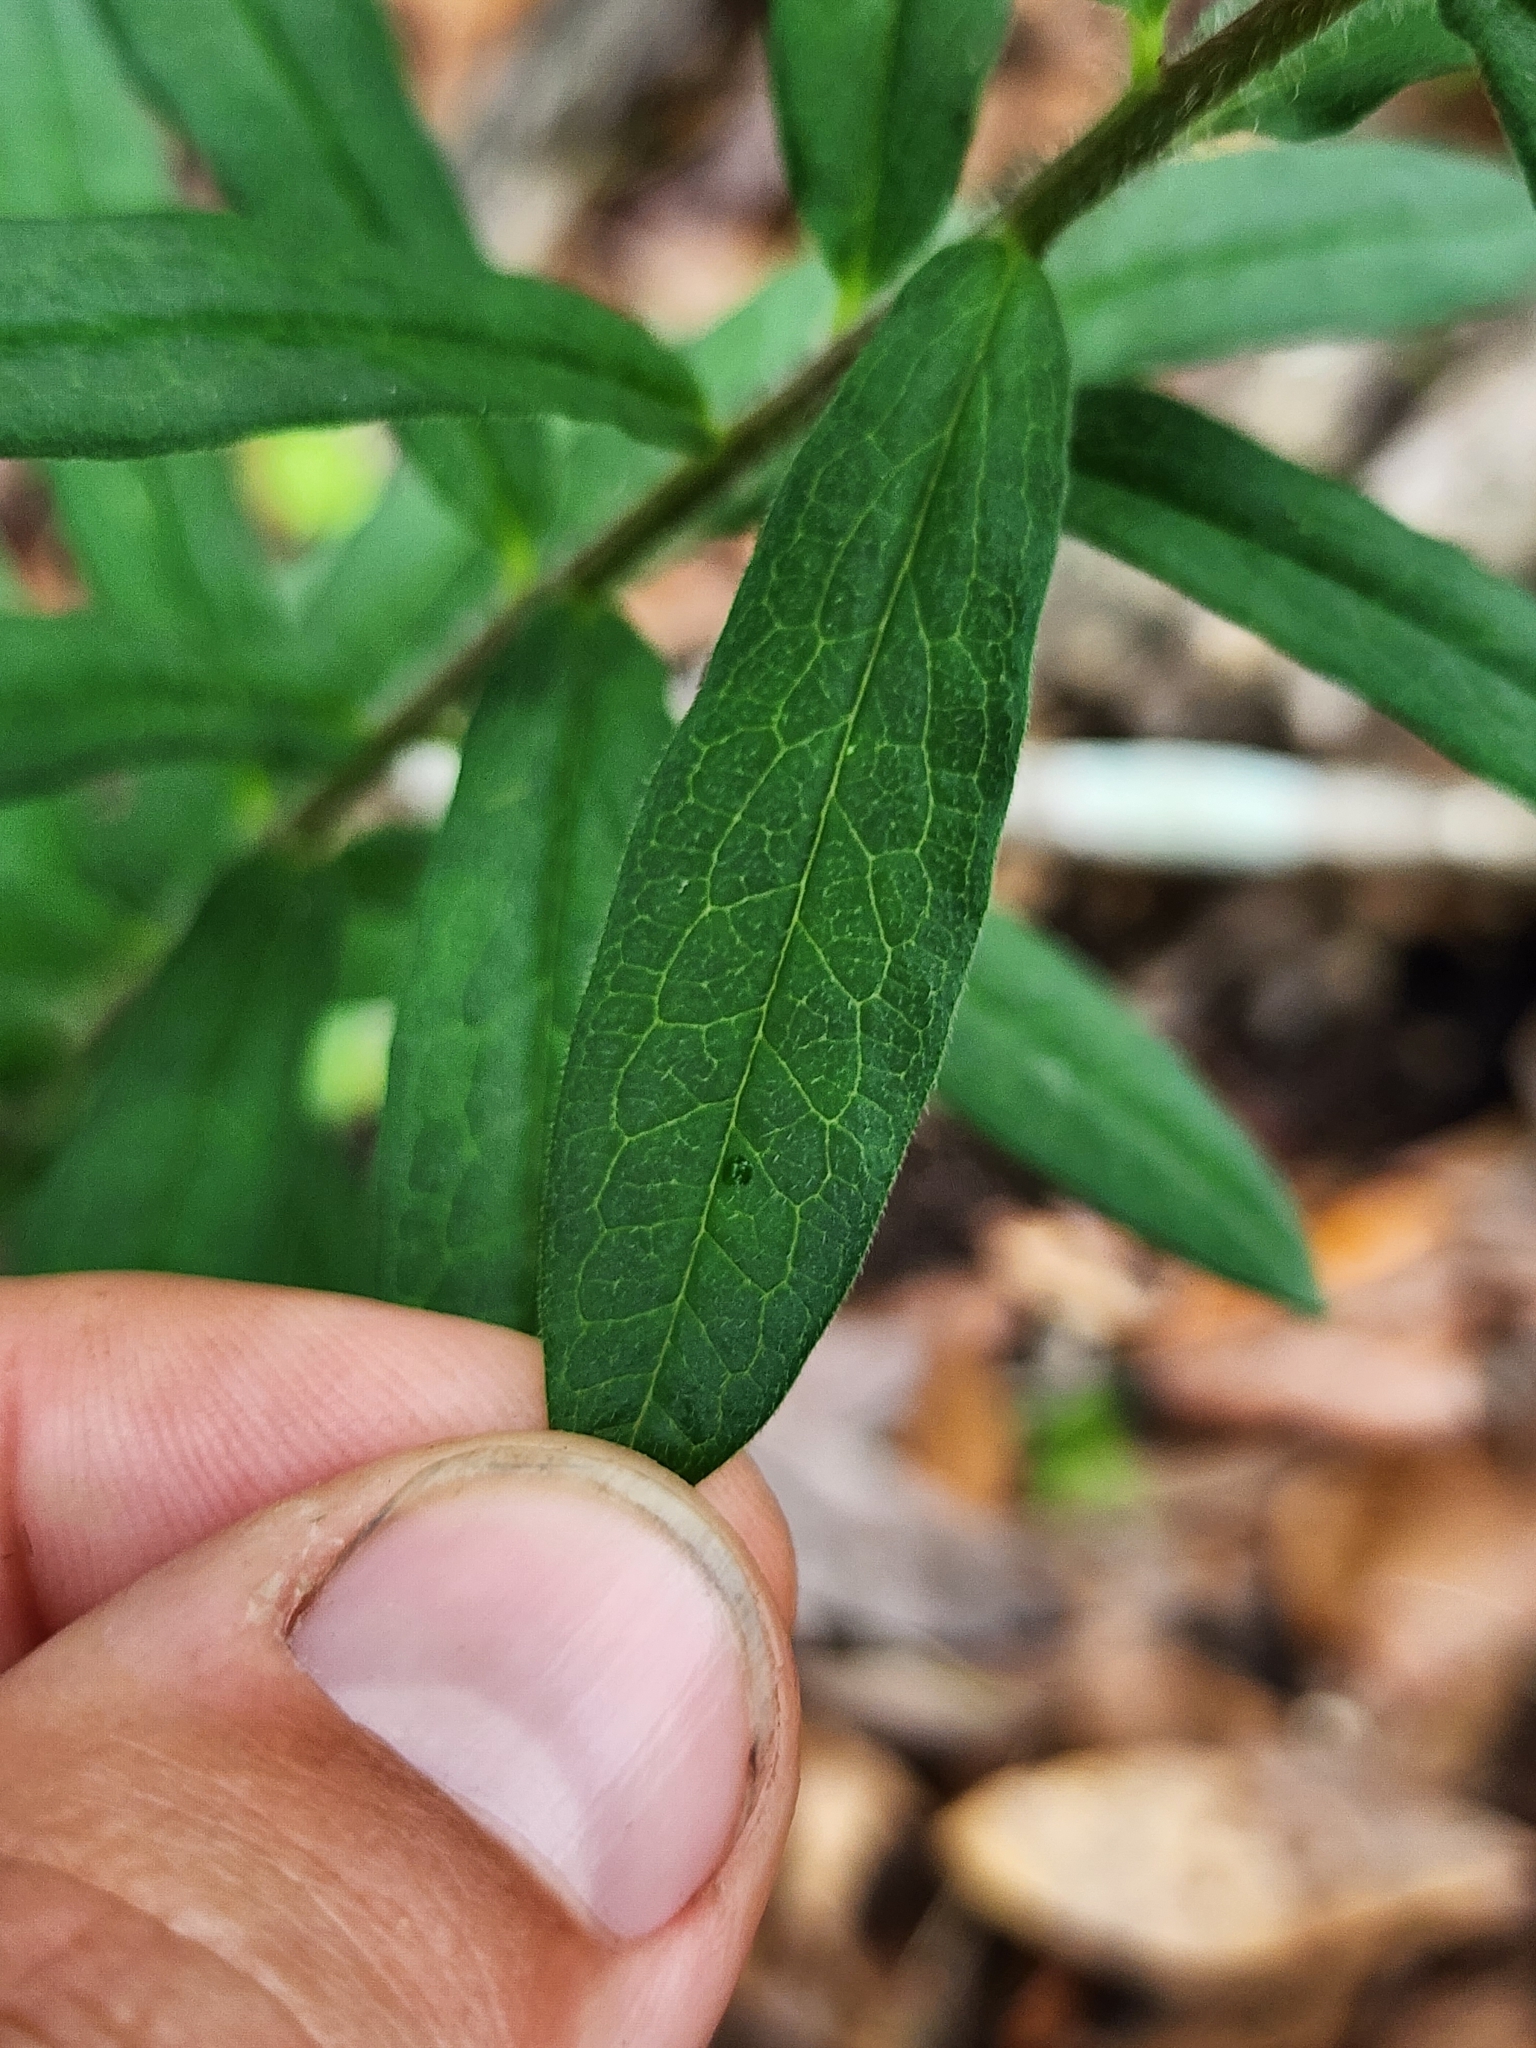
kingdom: Plantae
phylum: Tracheophyta
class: Magnoliopsida
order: Gentianales
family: Apocynaceae
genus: Asclepias
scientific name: Asclepias tuberosa
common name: Butterfly milkweed
